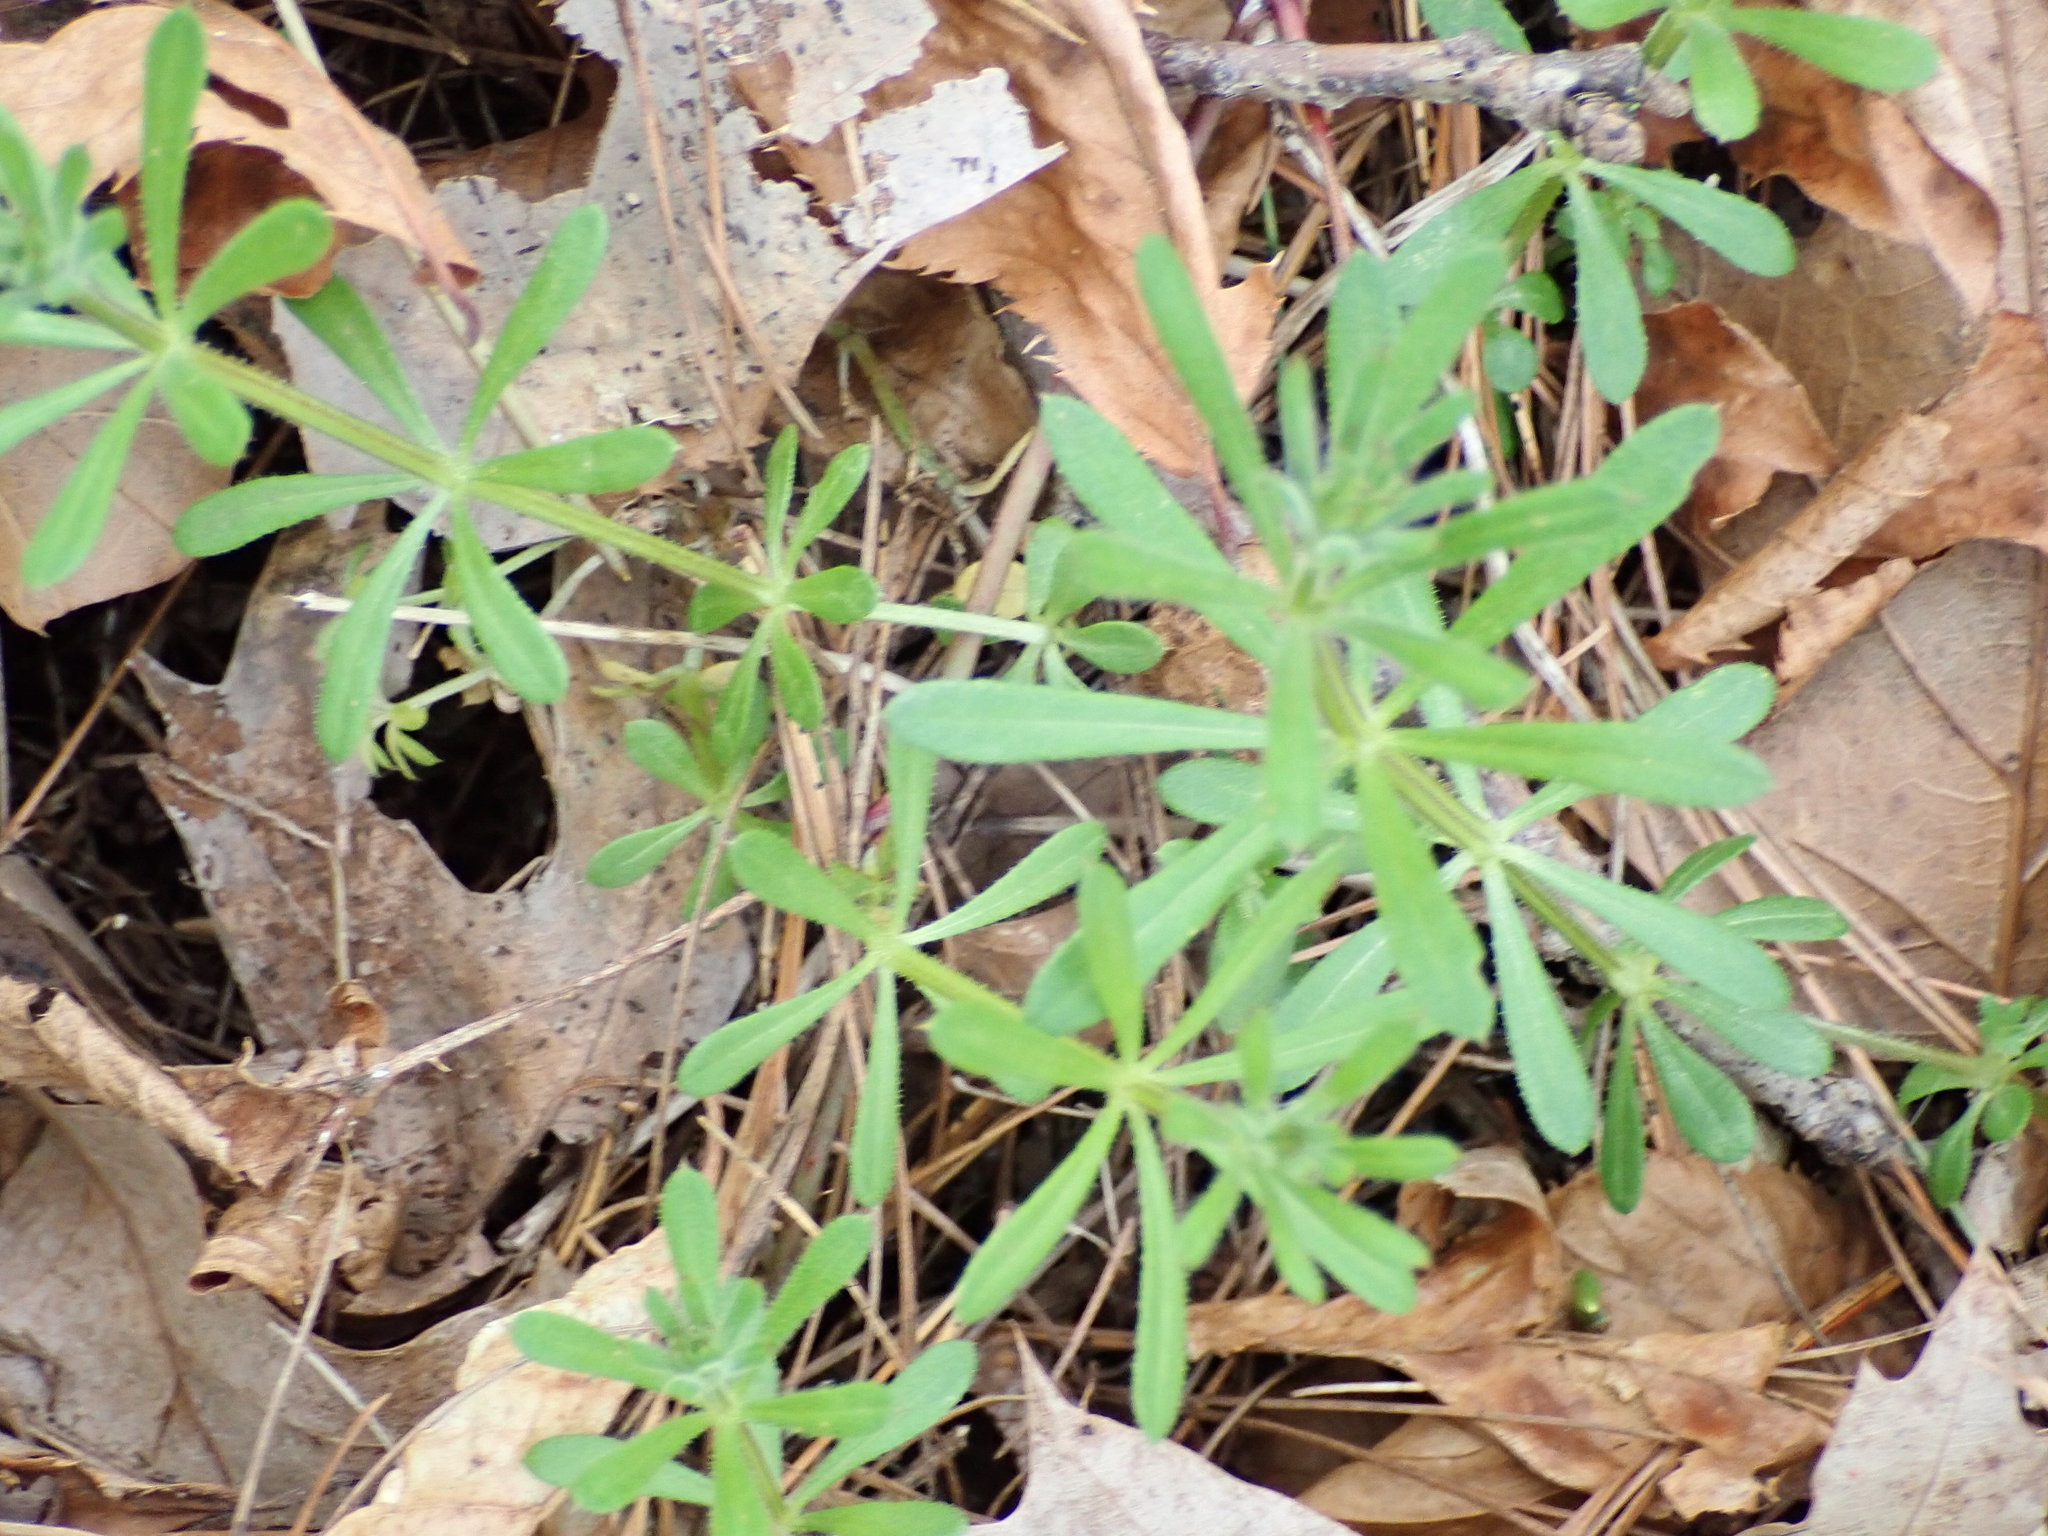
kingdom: Plantae
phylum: Tracheophyta
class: Magnoliopsida
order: Gentianales
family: Rubiaceae
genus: Galium
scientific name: Galium aparine
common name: Cleavers
